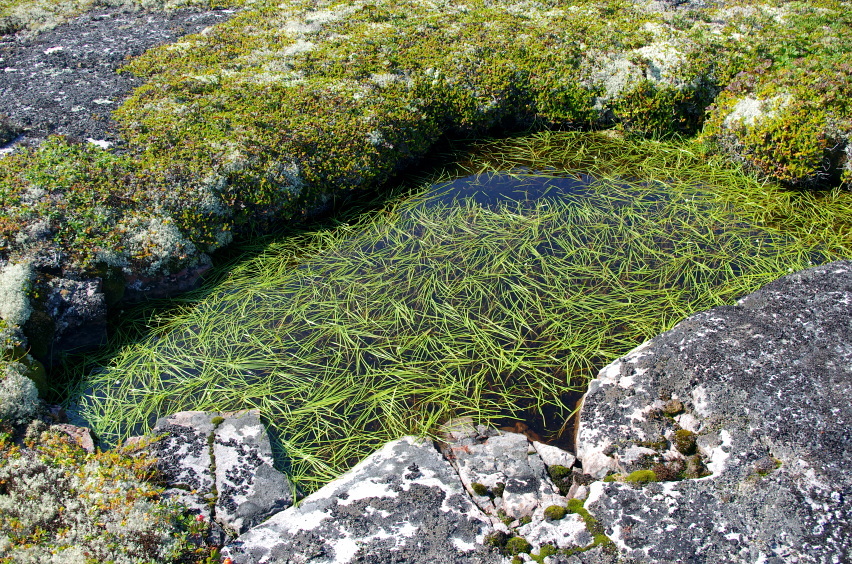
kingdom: Plantae
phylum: Tracheophyta
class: Liliopsida
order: Poales
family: Typhaceae
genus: Sparganium
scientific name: Sparganium natans
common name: Least bur-reed
